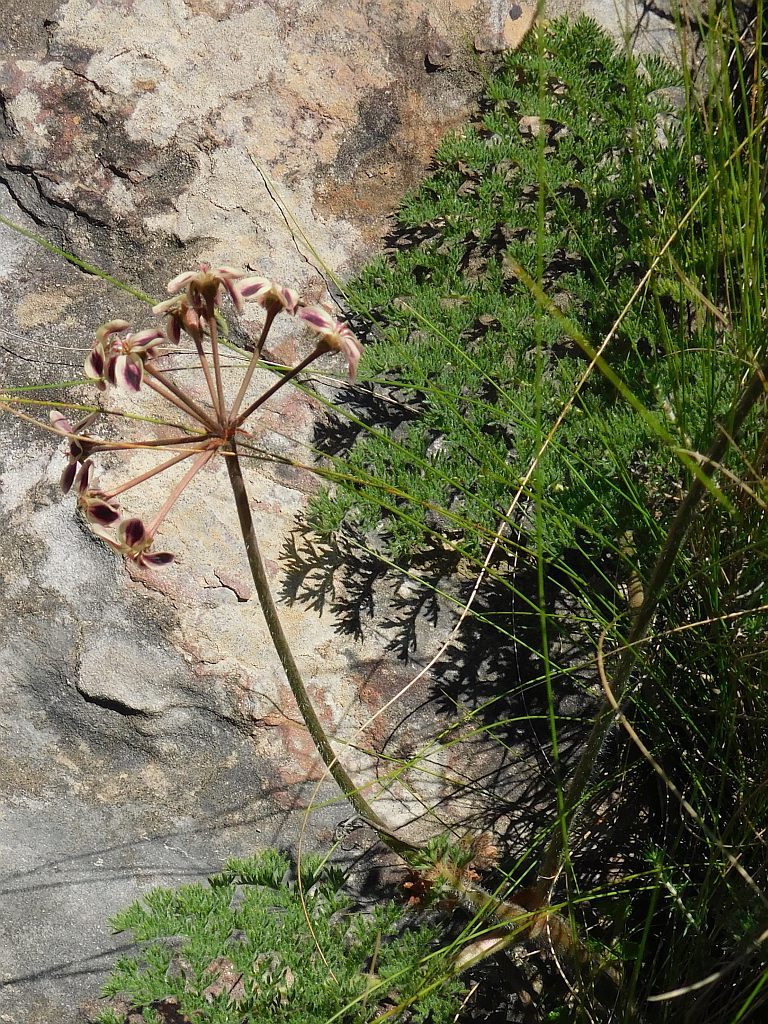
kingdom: Plantae
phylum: Tracheophyta
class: Magnoliopsida
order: Geraniales
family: Geraniaceae
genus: Pelargonium
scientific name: Pelargonium triste
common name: Night-scent pelargonium
